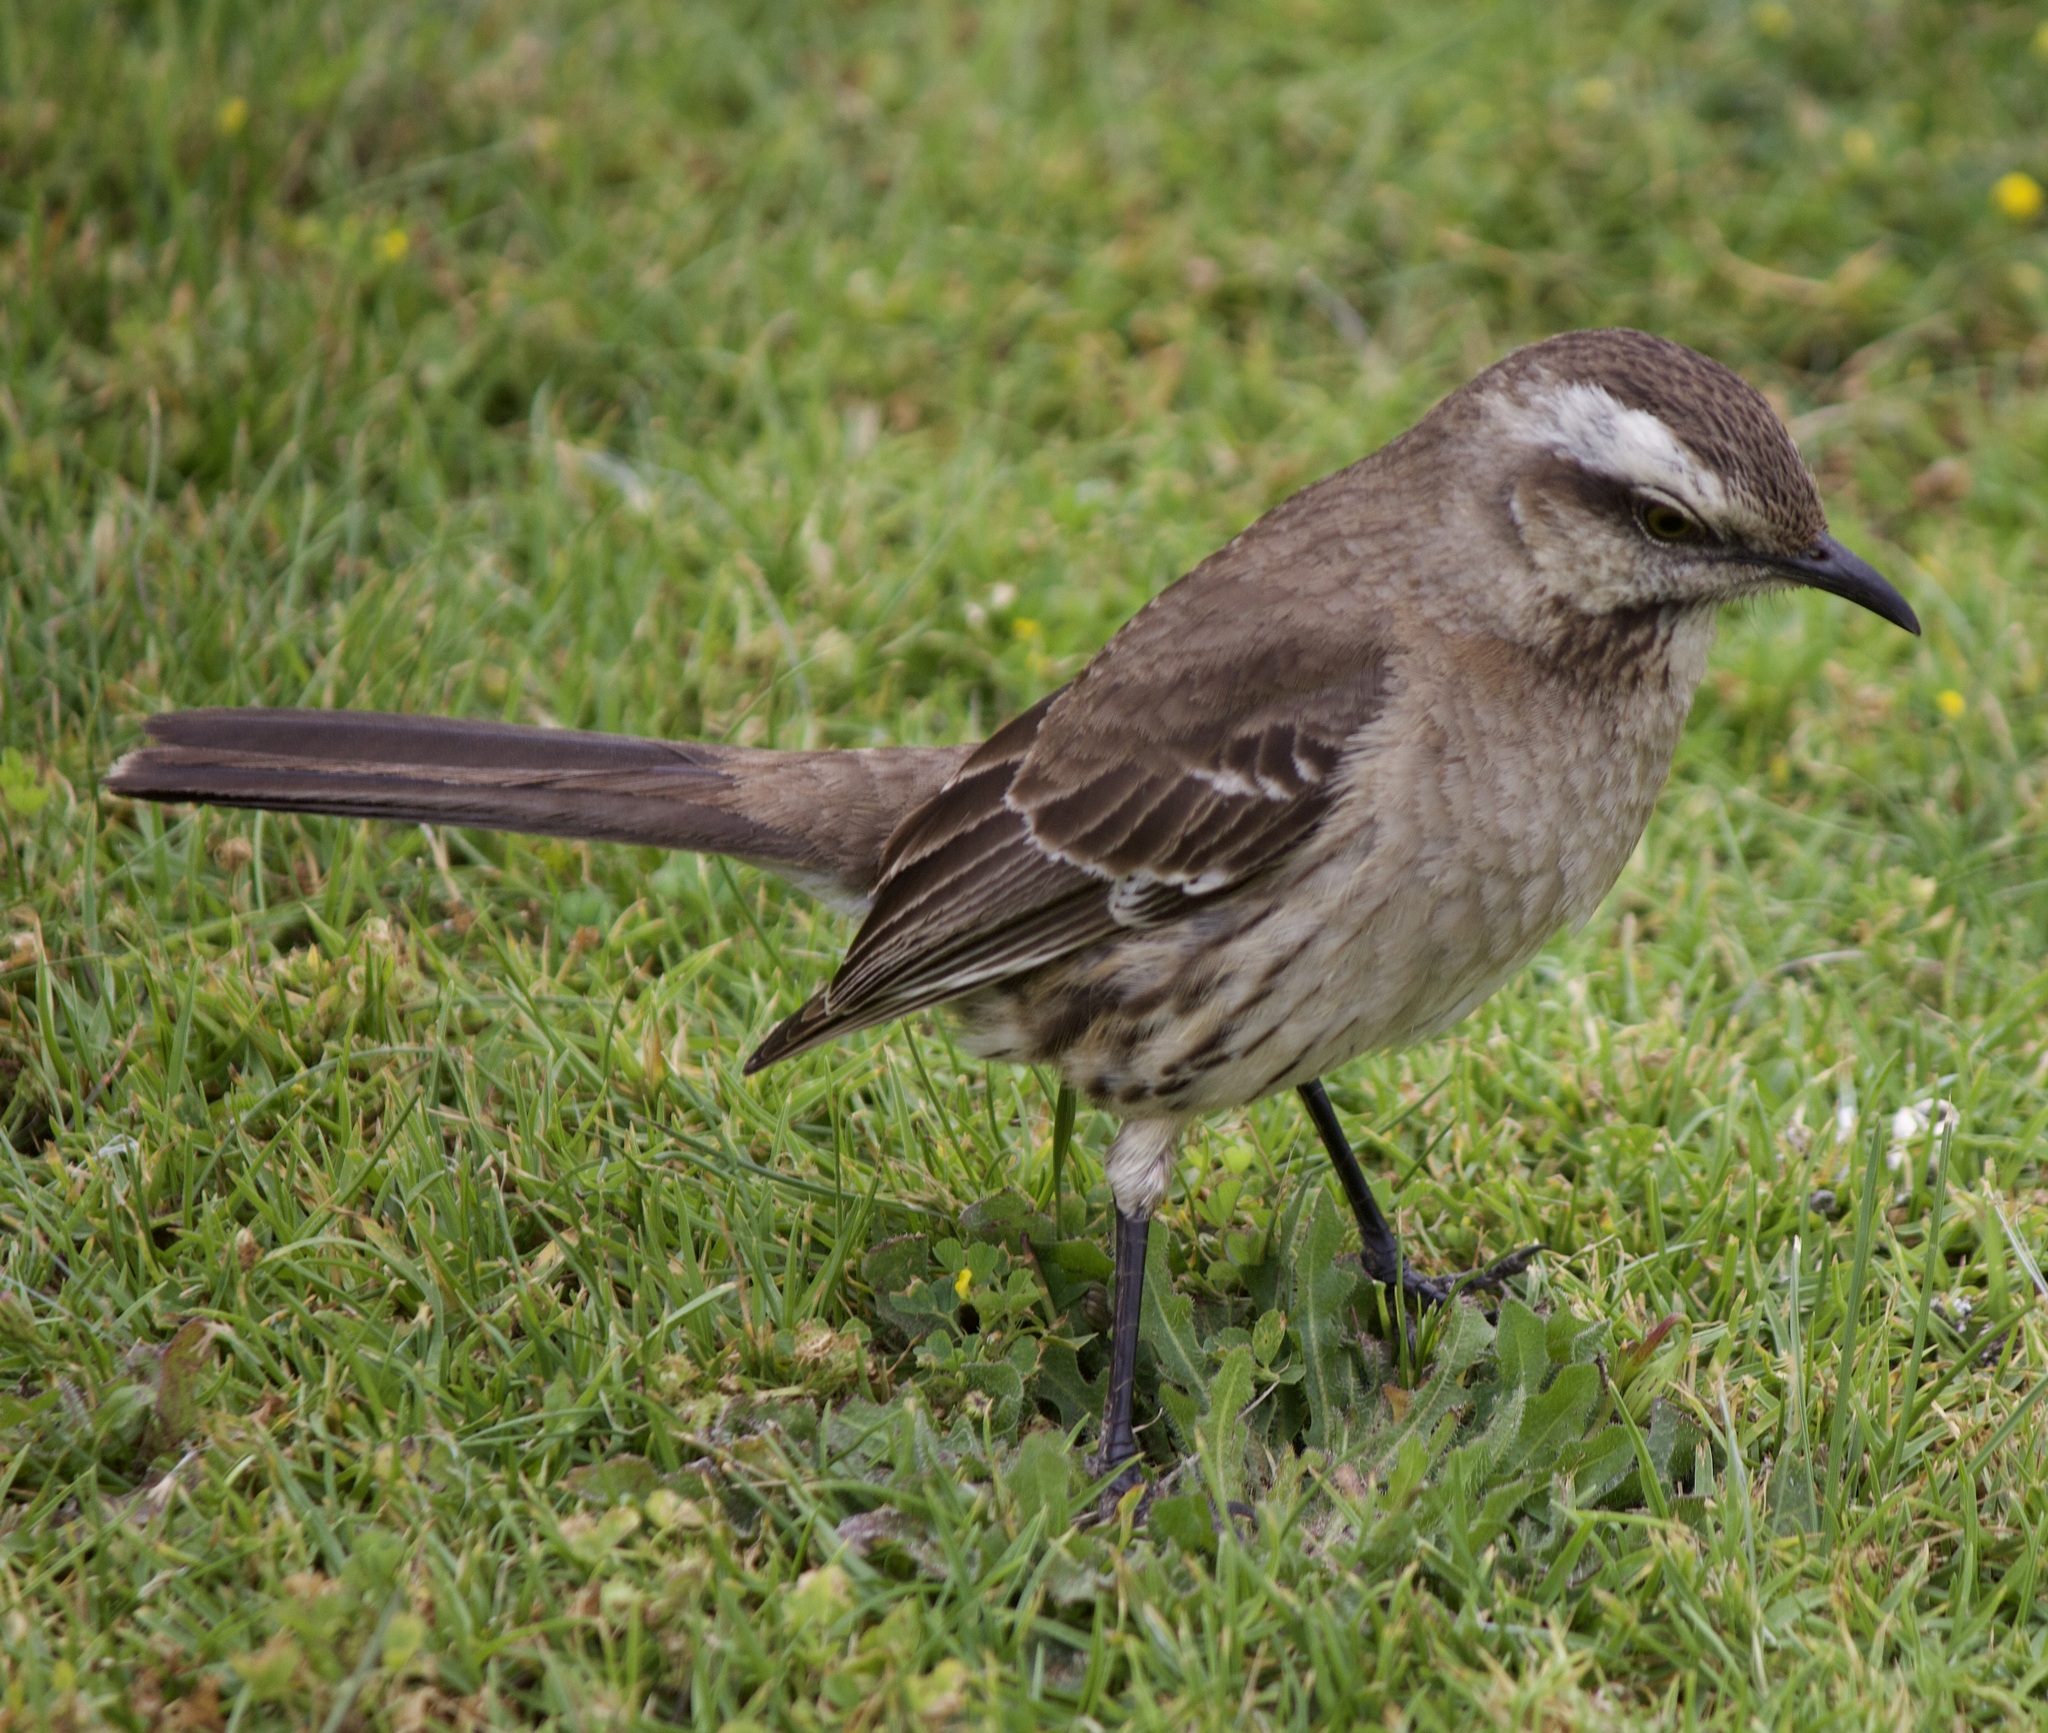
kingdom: Animalia
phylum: Chordata
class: Aves
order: Passeriformes
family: Mimidae
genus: Mimus
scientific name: Mimus thenca
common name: Chilean mockingbird
